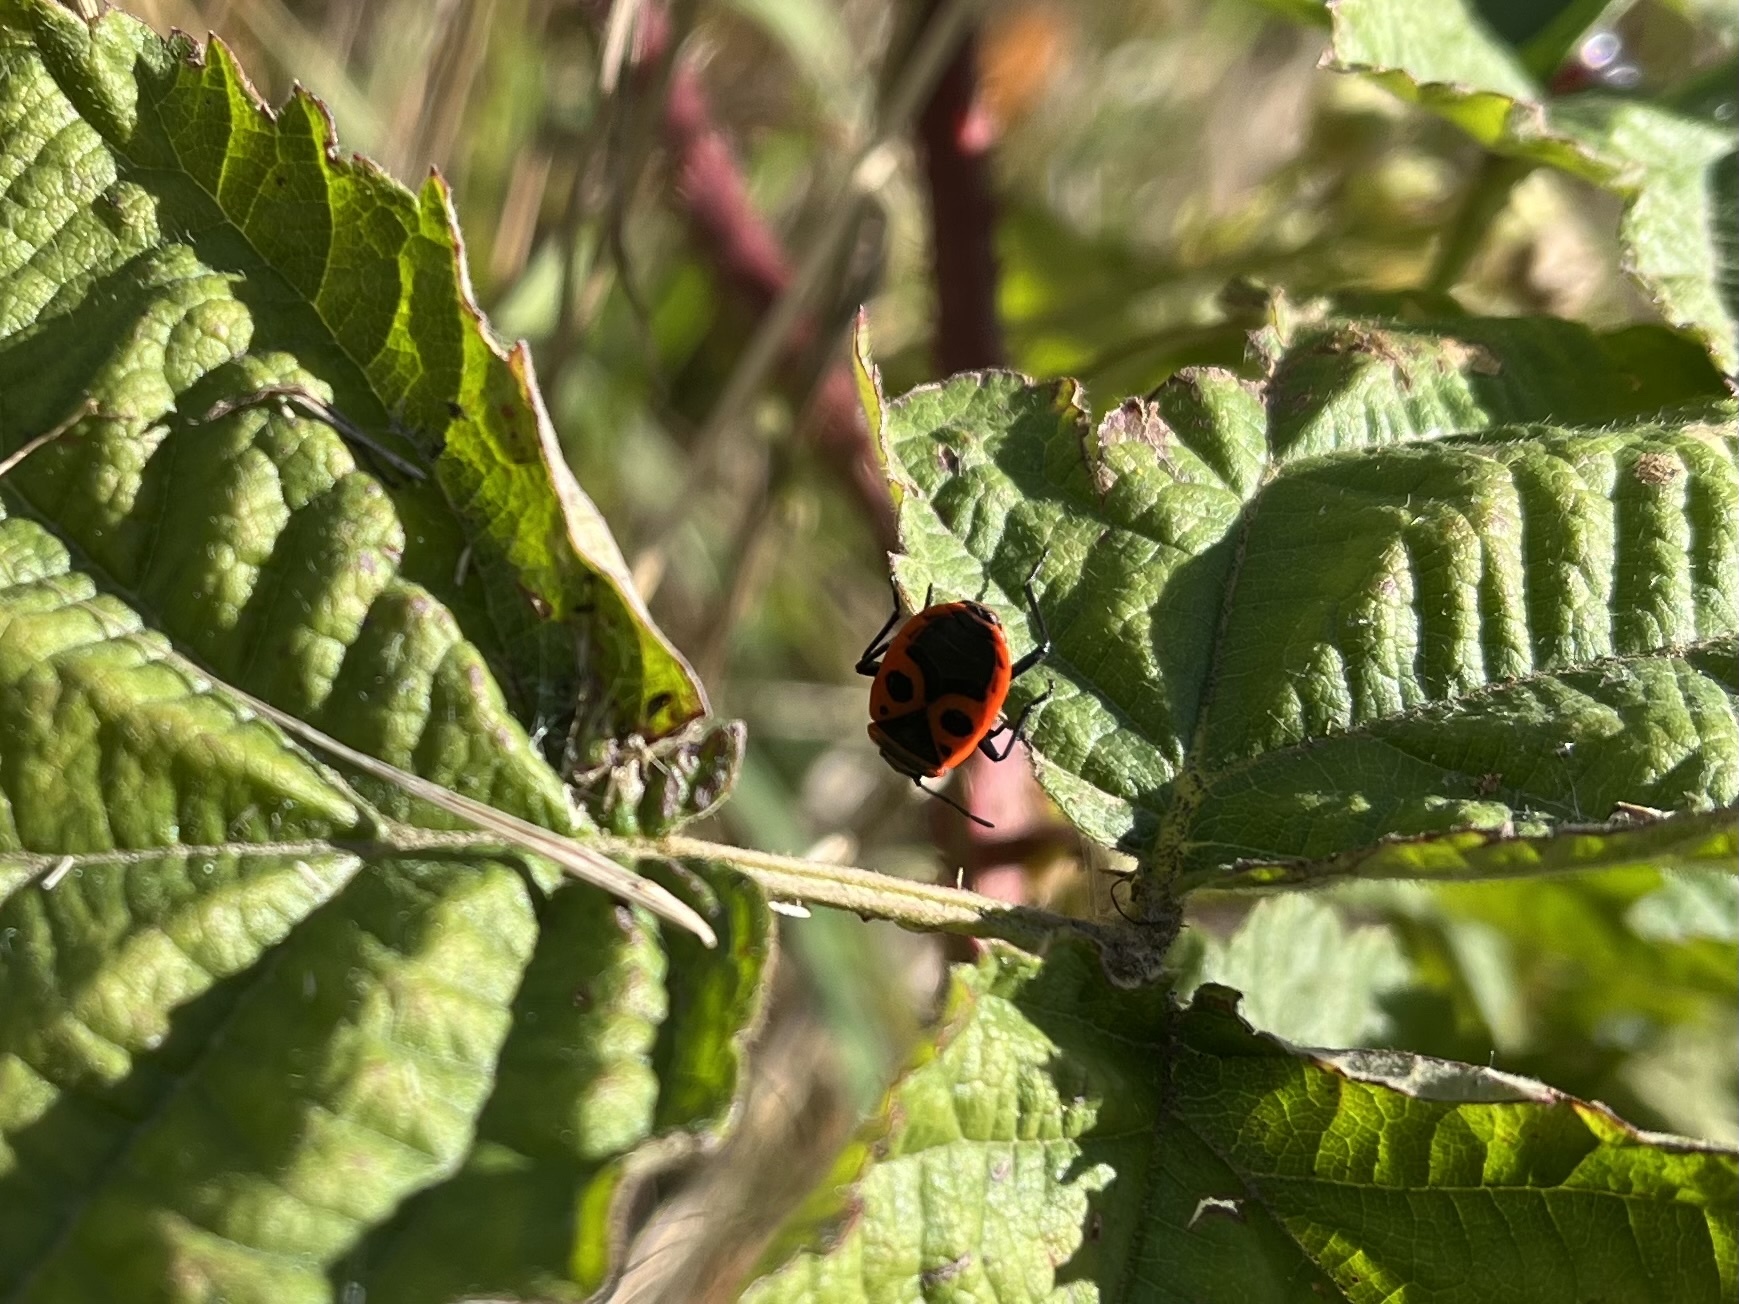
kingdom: Animalia
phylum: Arthropoda
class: Insecta
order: Hemiptera
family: Pyrrhocoridae
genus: Pyrrhocoris
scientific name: Pyrrhocoris apterus
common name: Firebug
